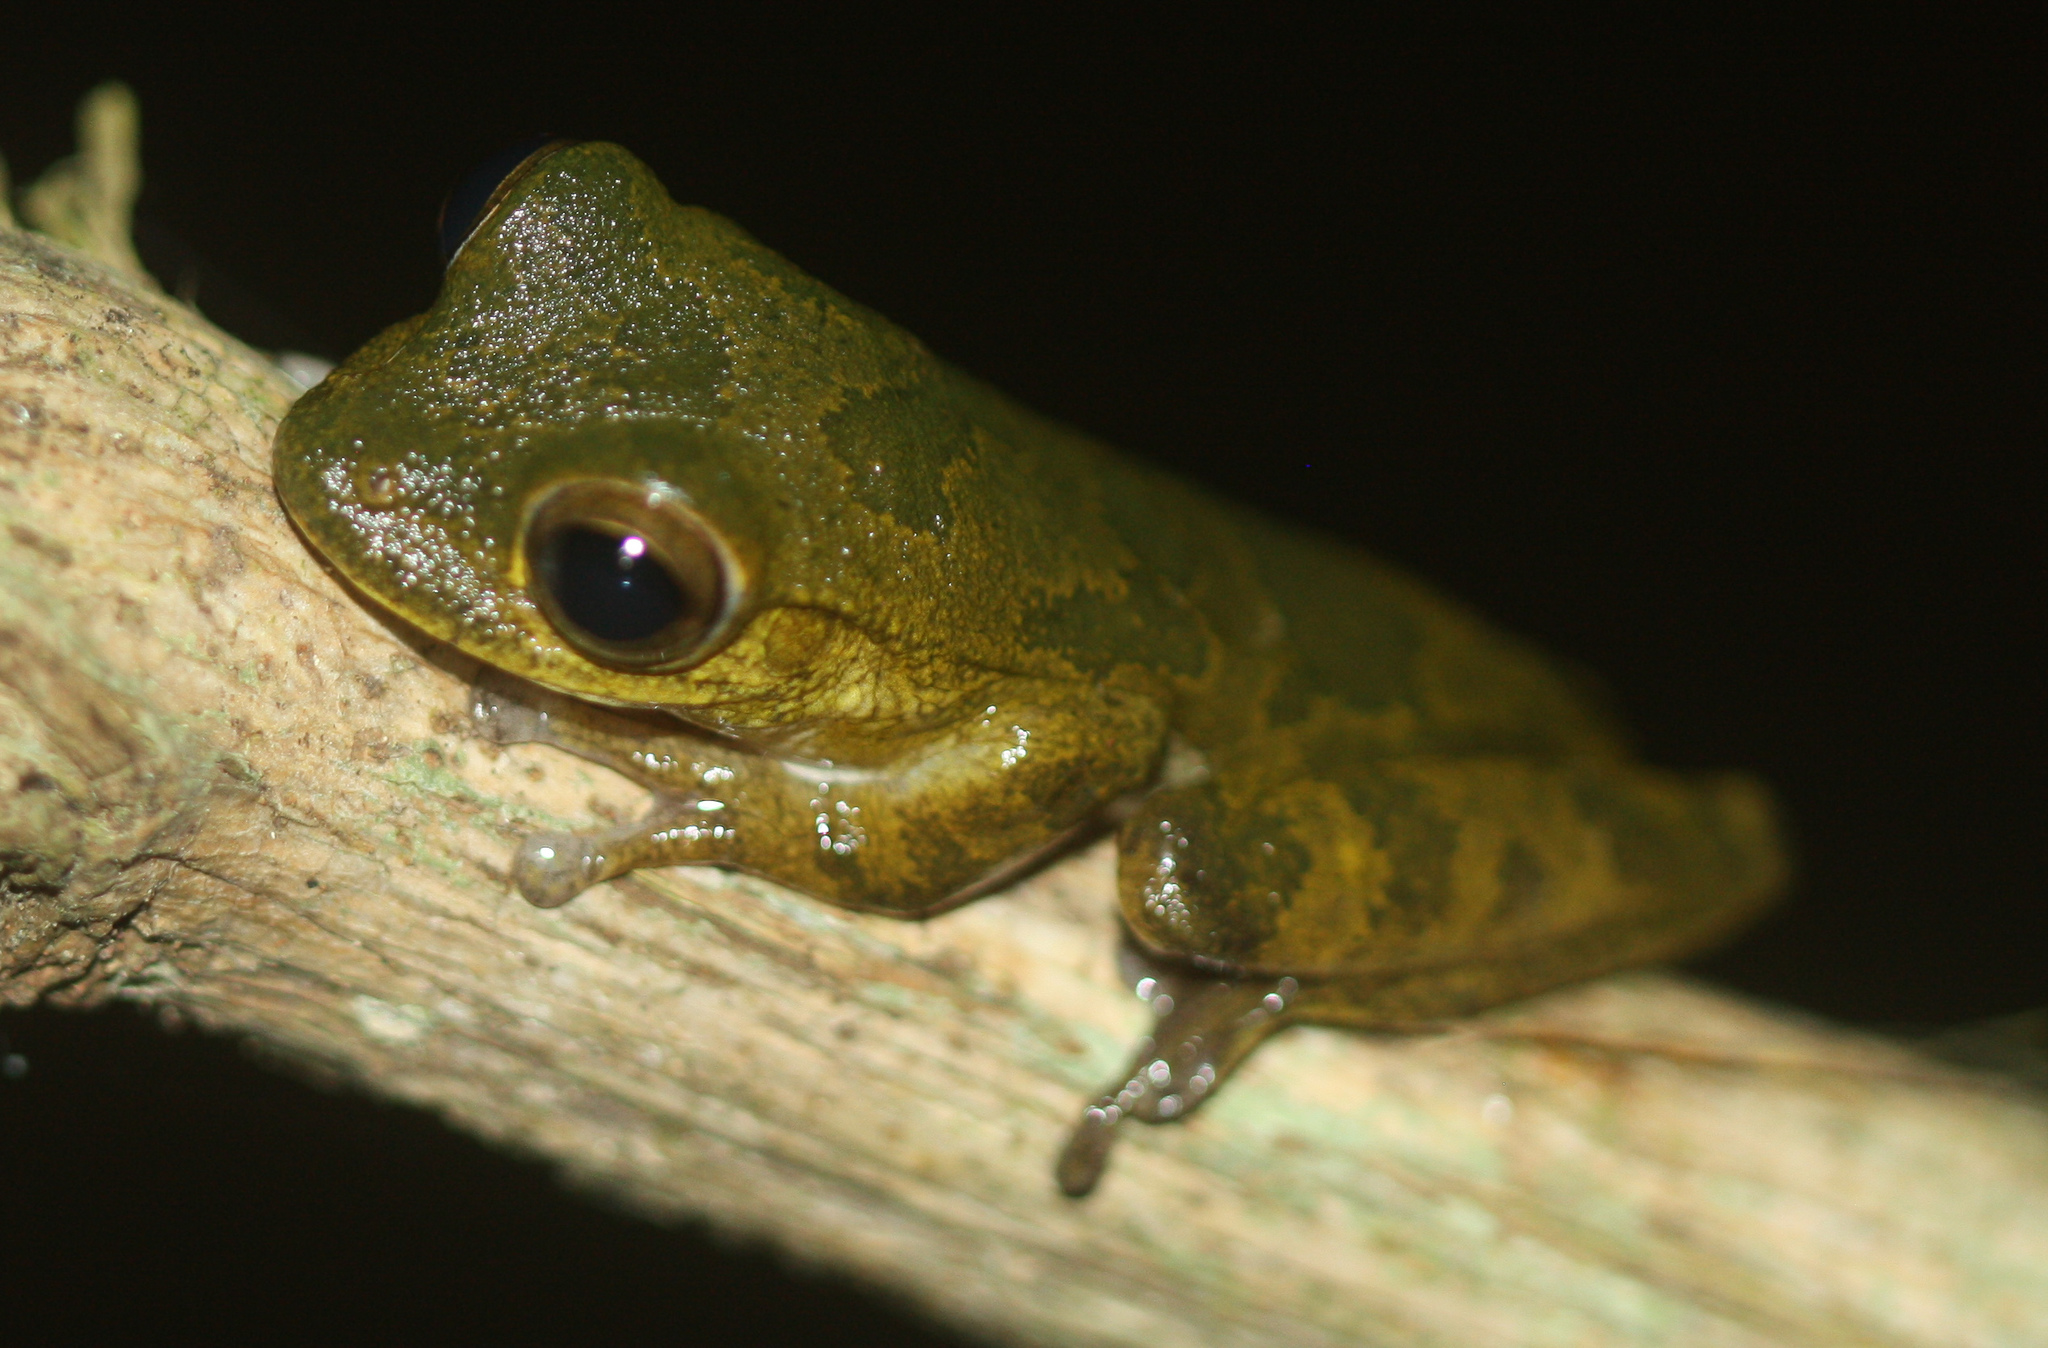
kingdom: Animalia
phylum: Chordata
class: Amphibia
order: Anura
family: Hylidae
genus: Smilisca
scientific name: Smilisca sordida
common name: Veragua cross-banded treefrog
